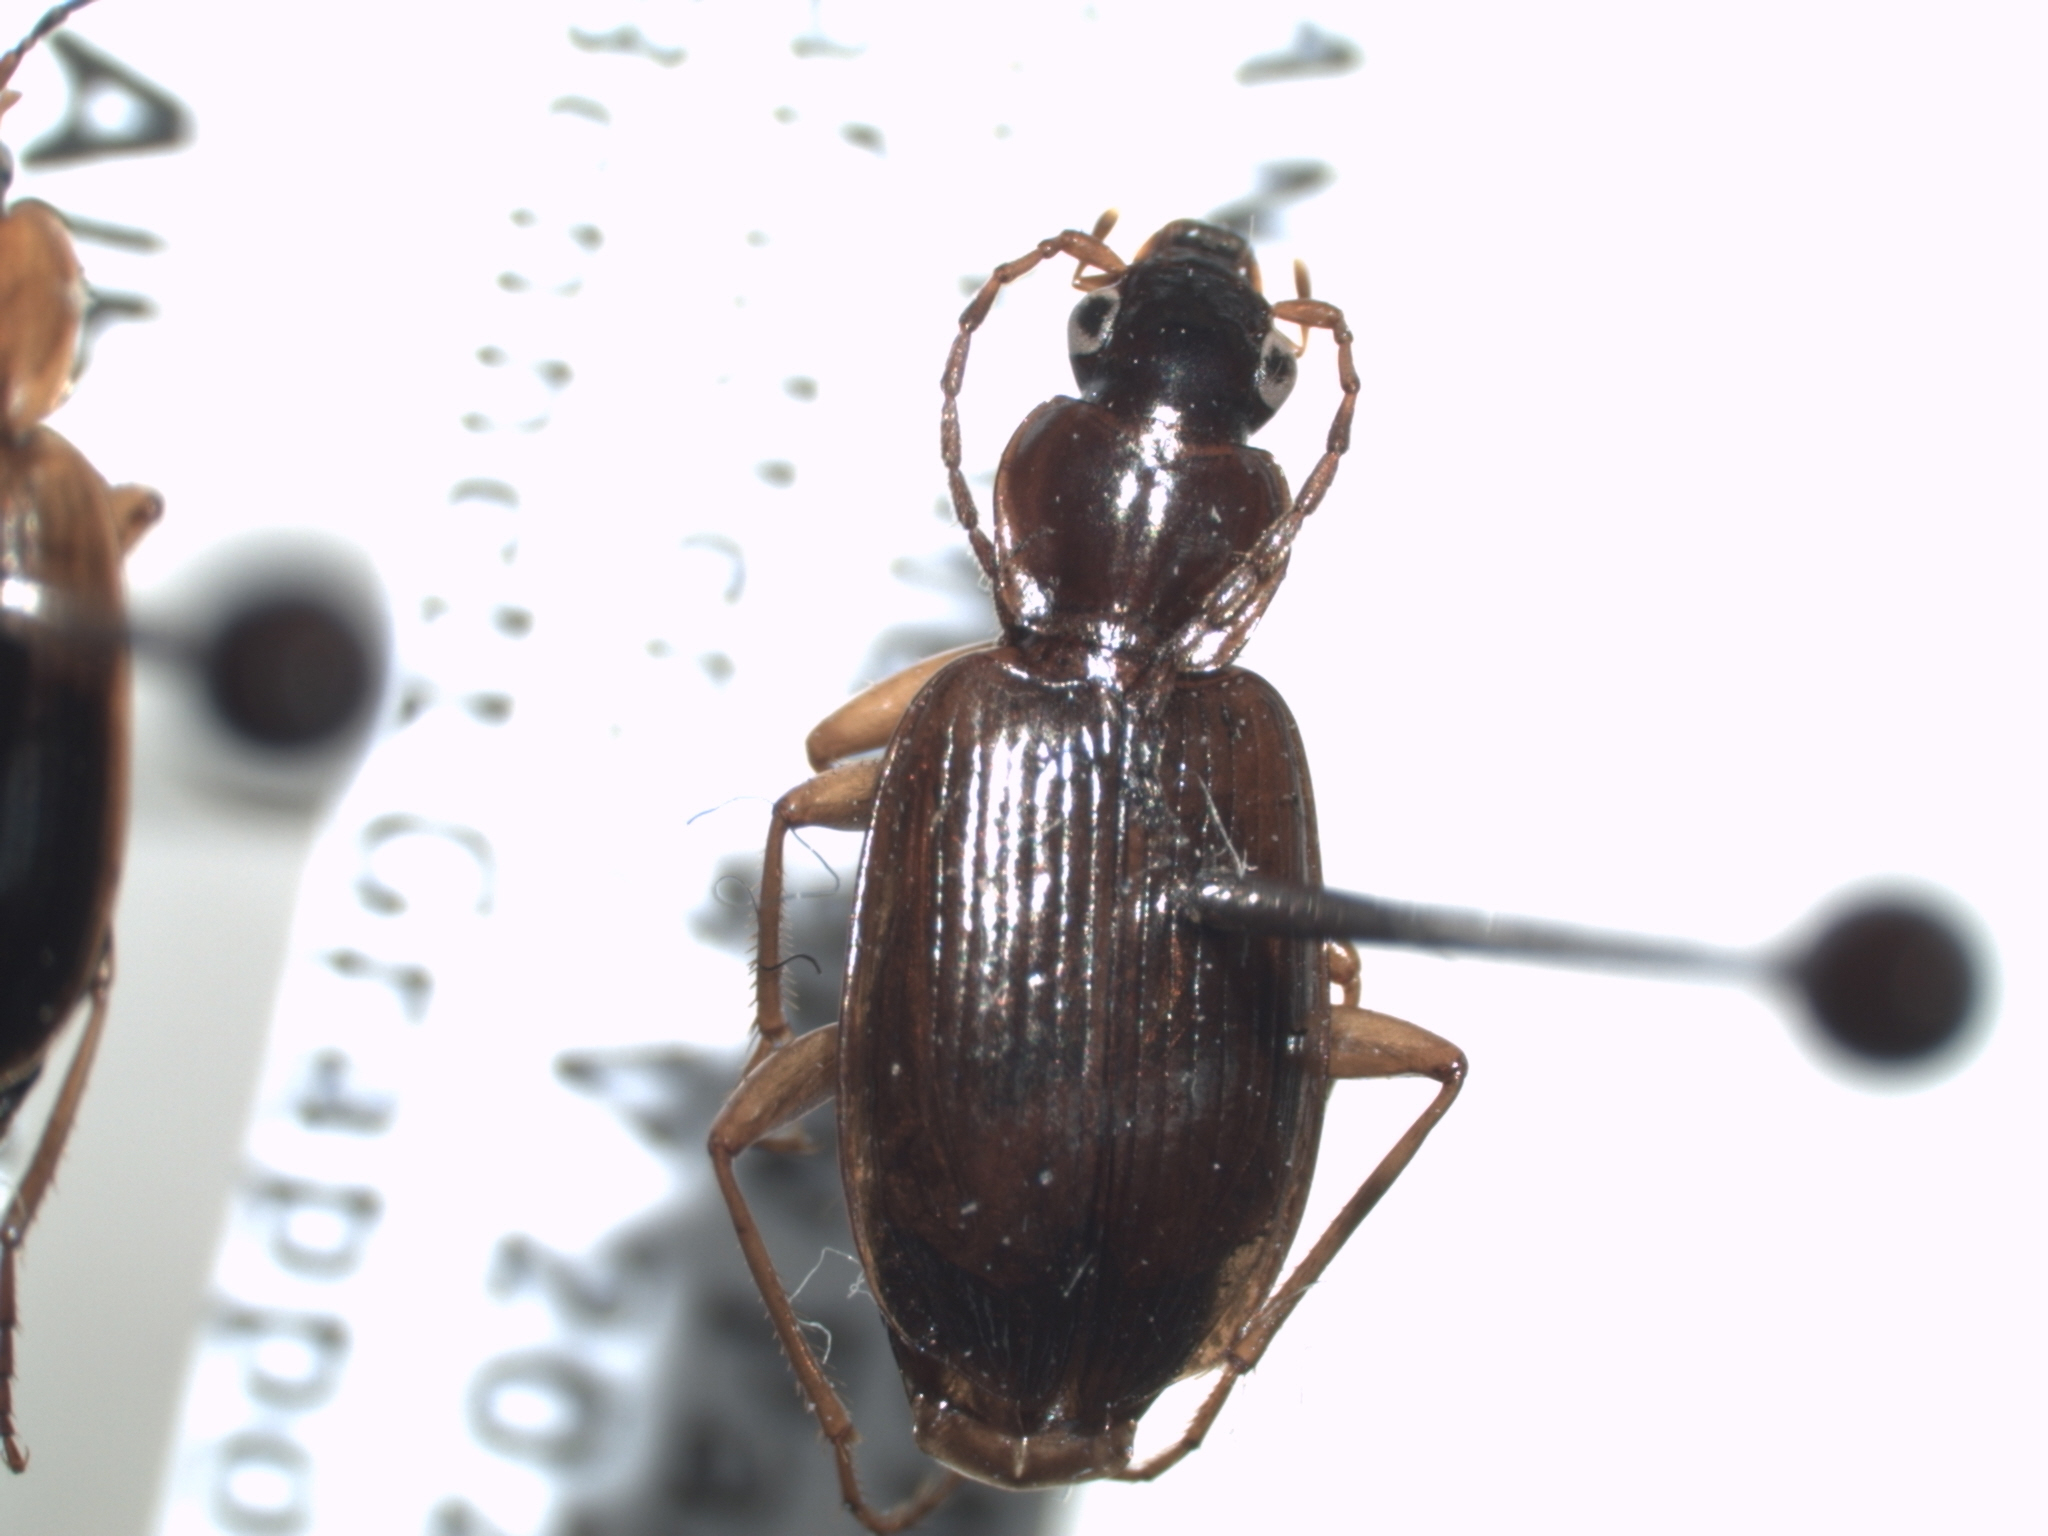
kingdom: Animalia
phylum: Arthropoda
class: Insecta
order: Coleoptera
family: Carabidae
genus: Agonum
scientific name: Agonum piceolum
